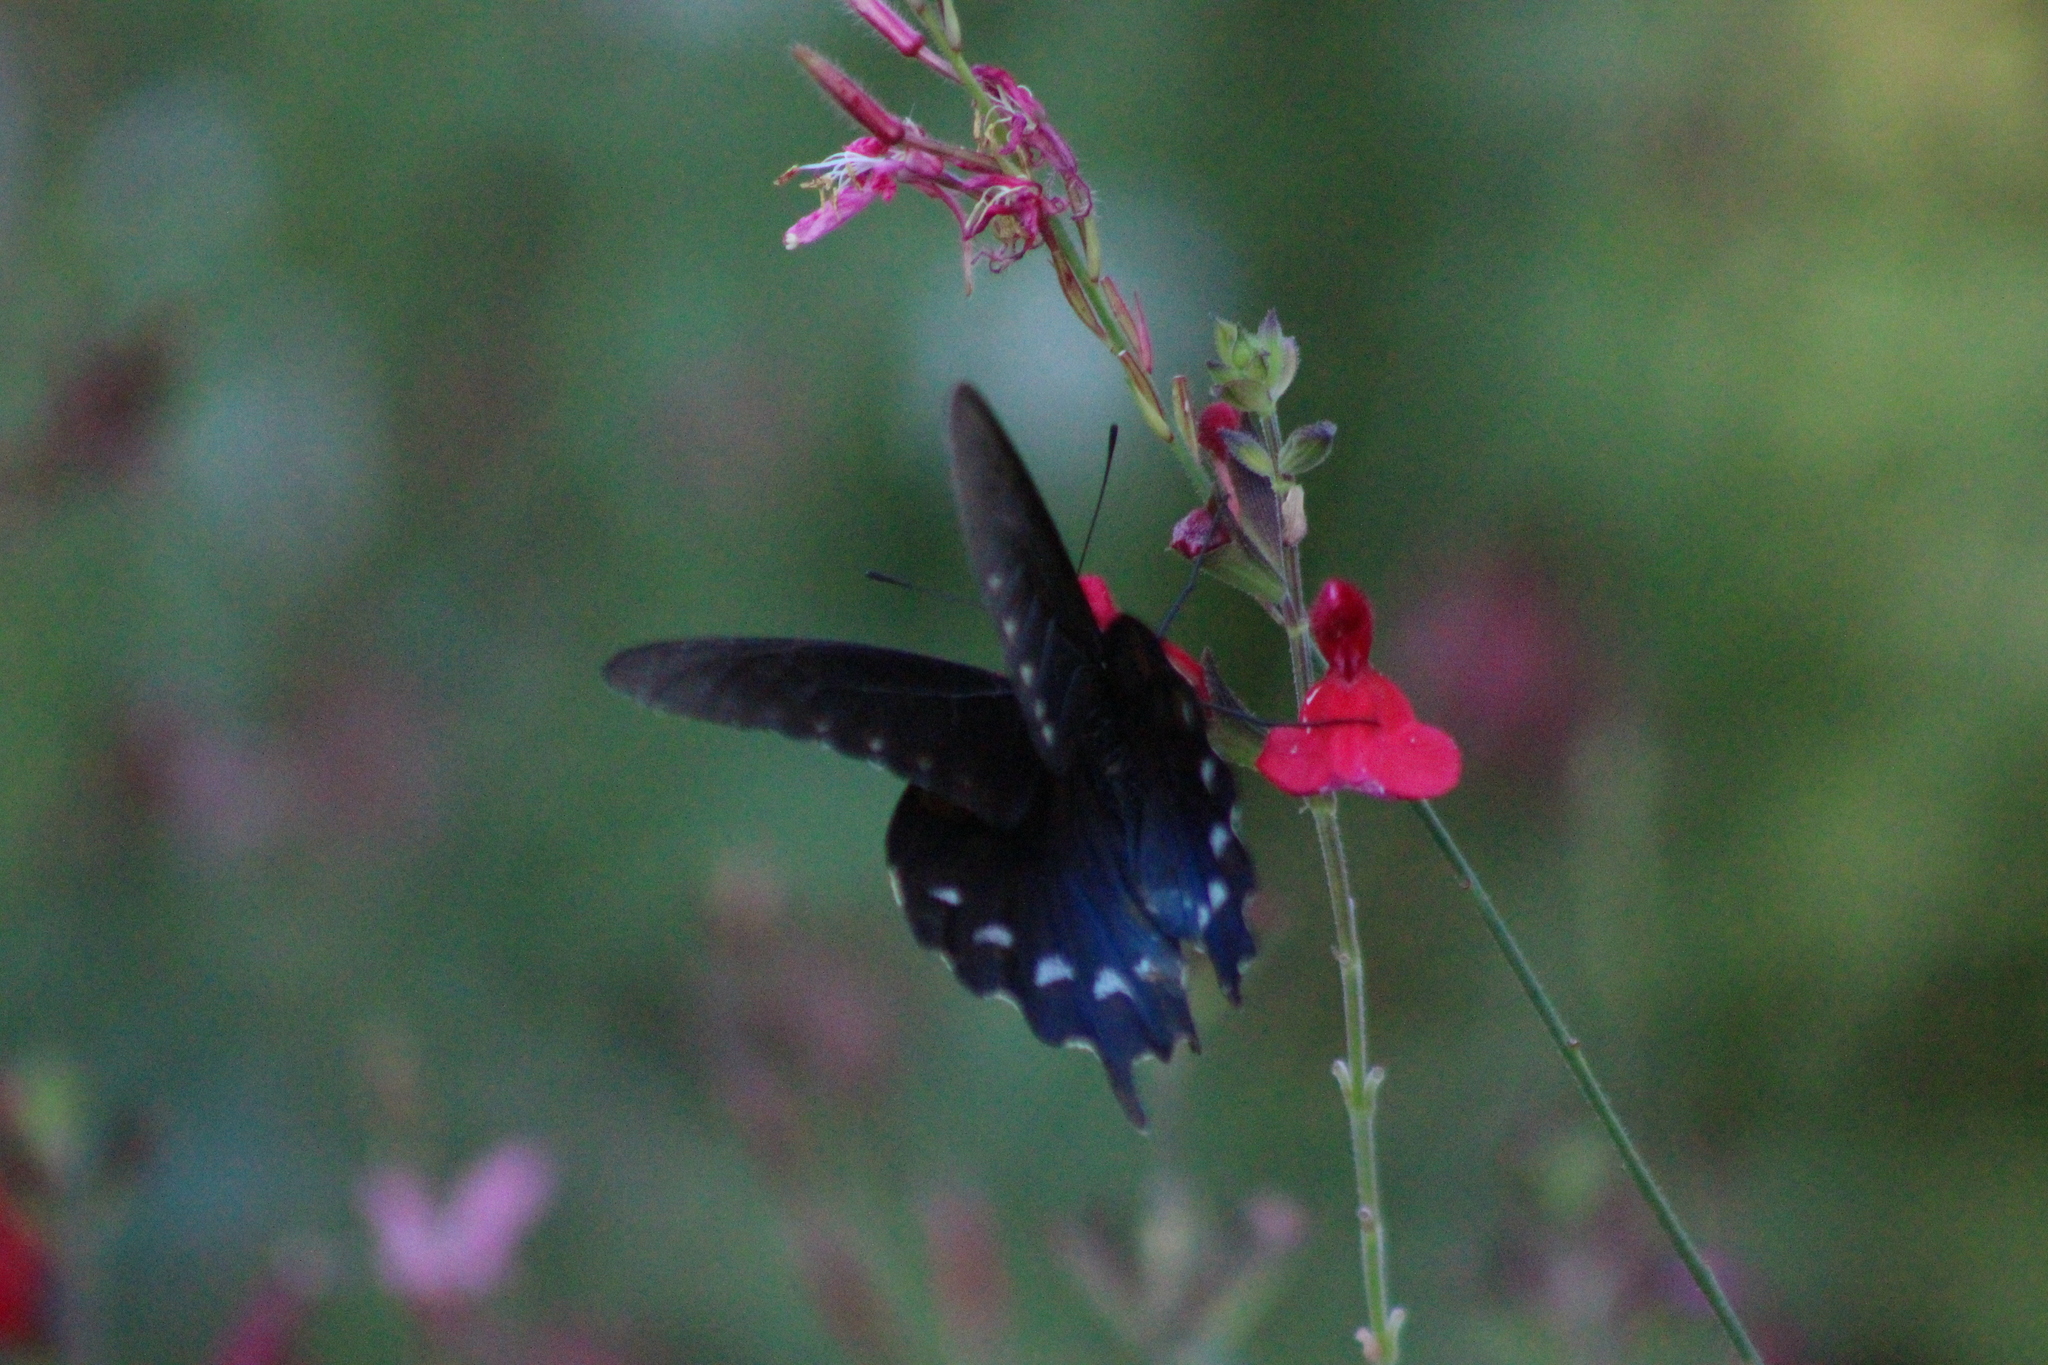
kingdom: Animalia
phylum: Arthropoda
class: Insecta
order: Lepidoptera
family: Papilionidae
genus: Battus
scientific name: Battus philenor
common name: Pipevine swallowtail
